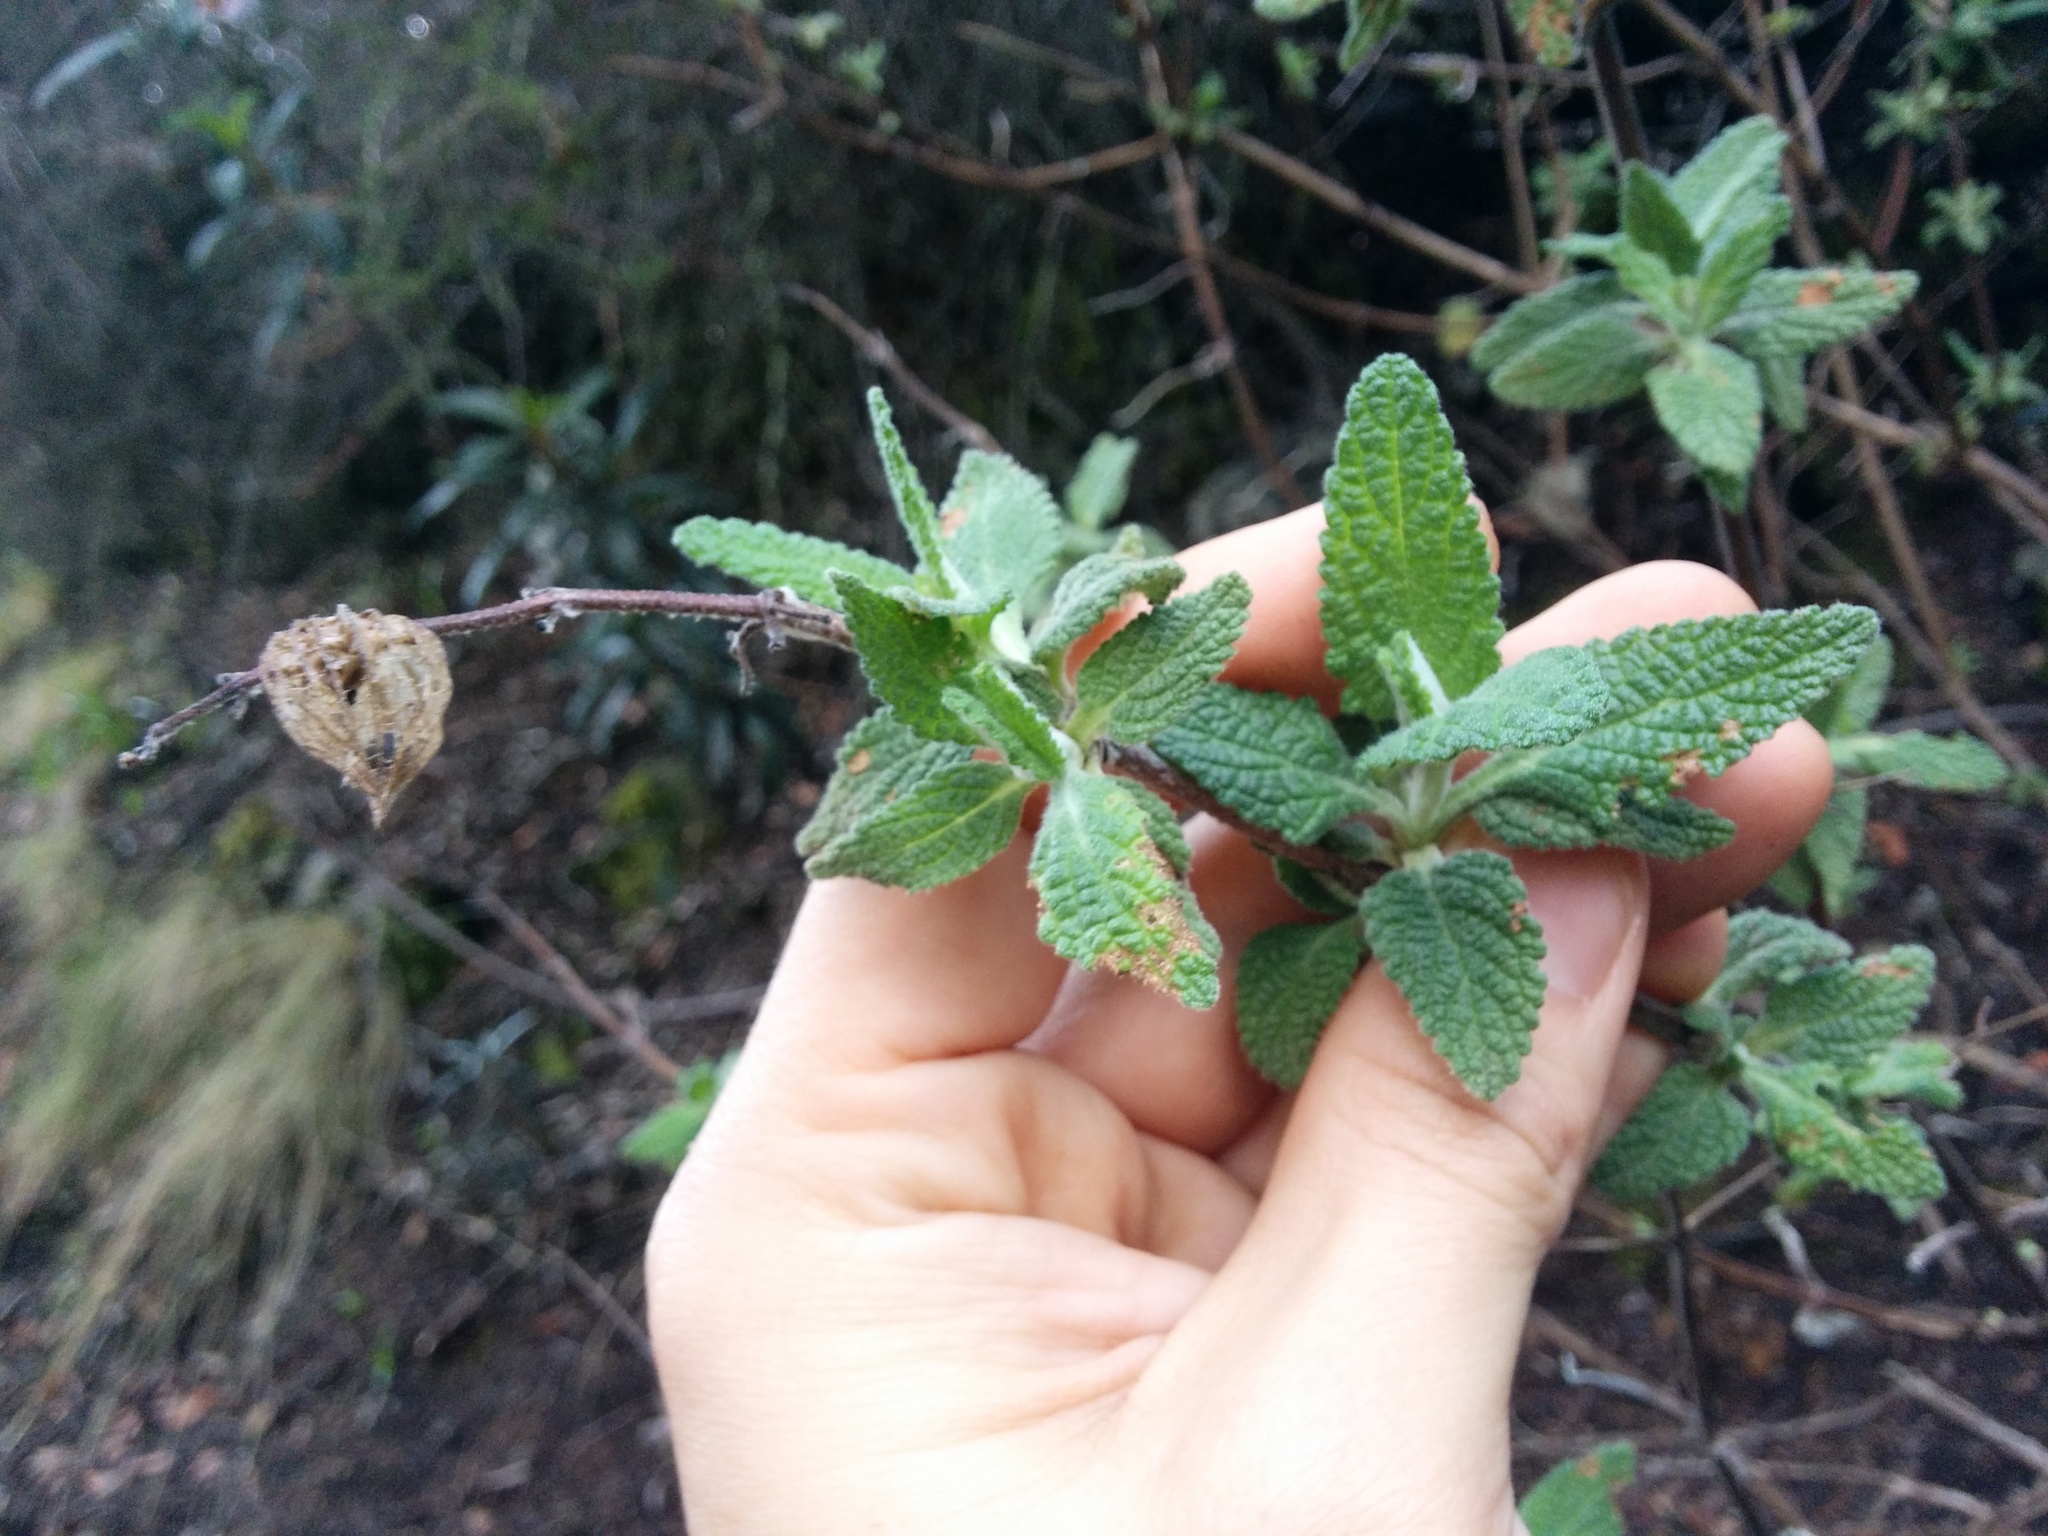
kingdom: Plantae
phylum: Tracheophyta
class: Magnoliopsida
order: Lamiales
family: Lamiaceae
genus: Lepechinia
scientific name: Lepechinia calycina
